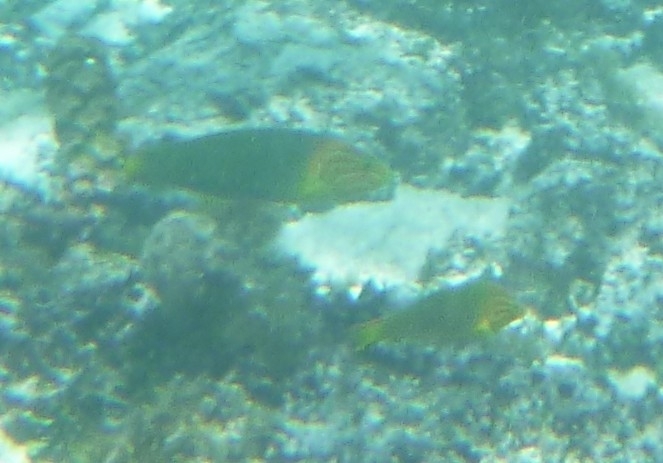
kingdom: Animalia
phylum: Chordata
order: Perciformes
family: Labridae
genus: Thalassoma
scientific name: Thalassoma lutescens
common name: Green moon wrasse
